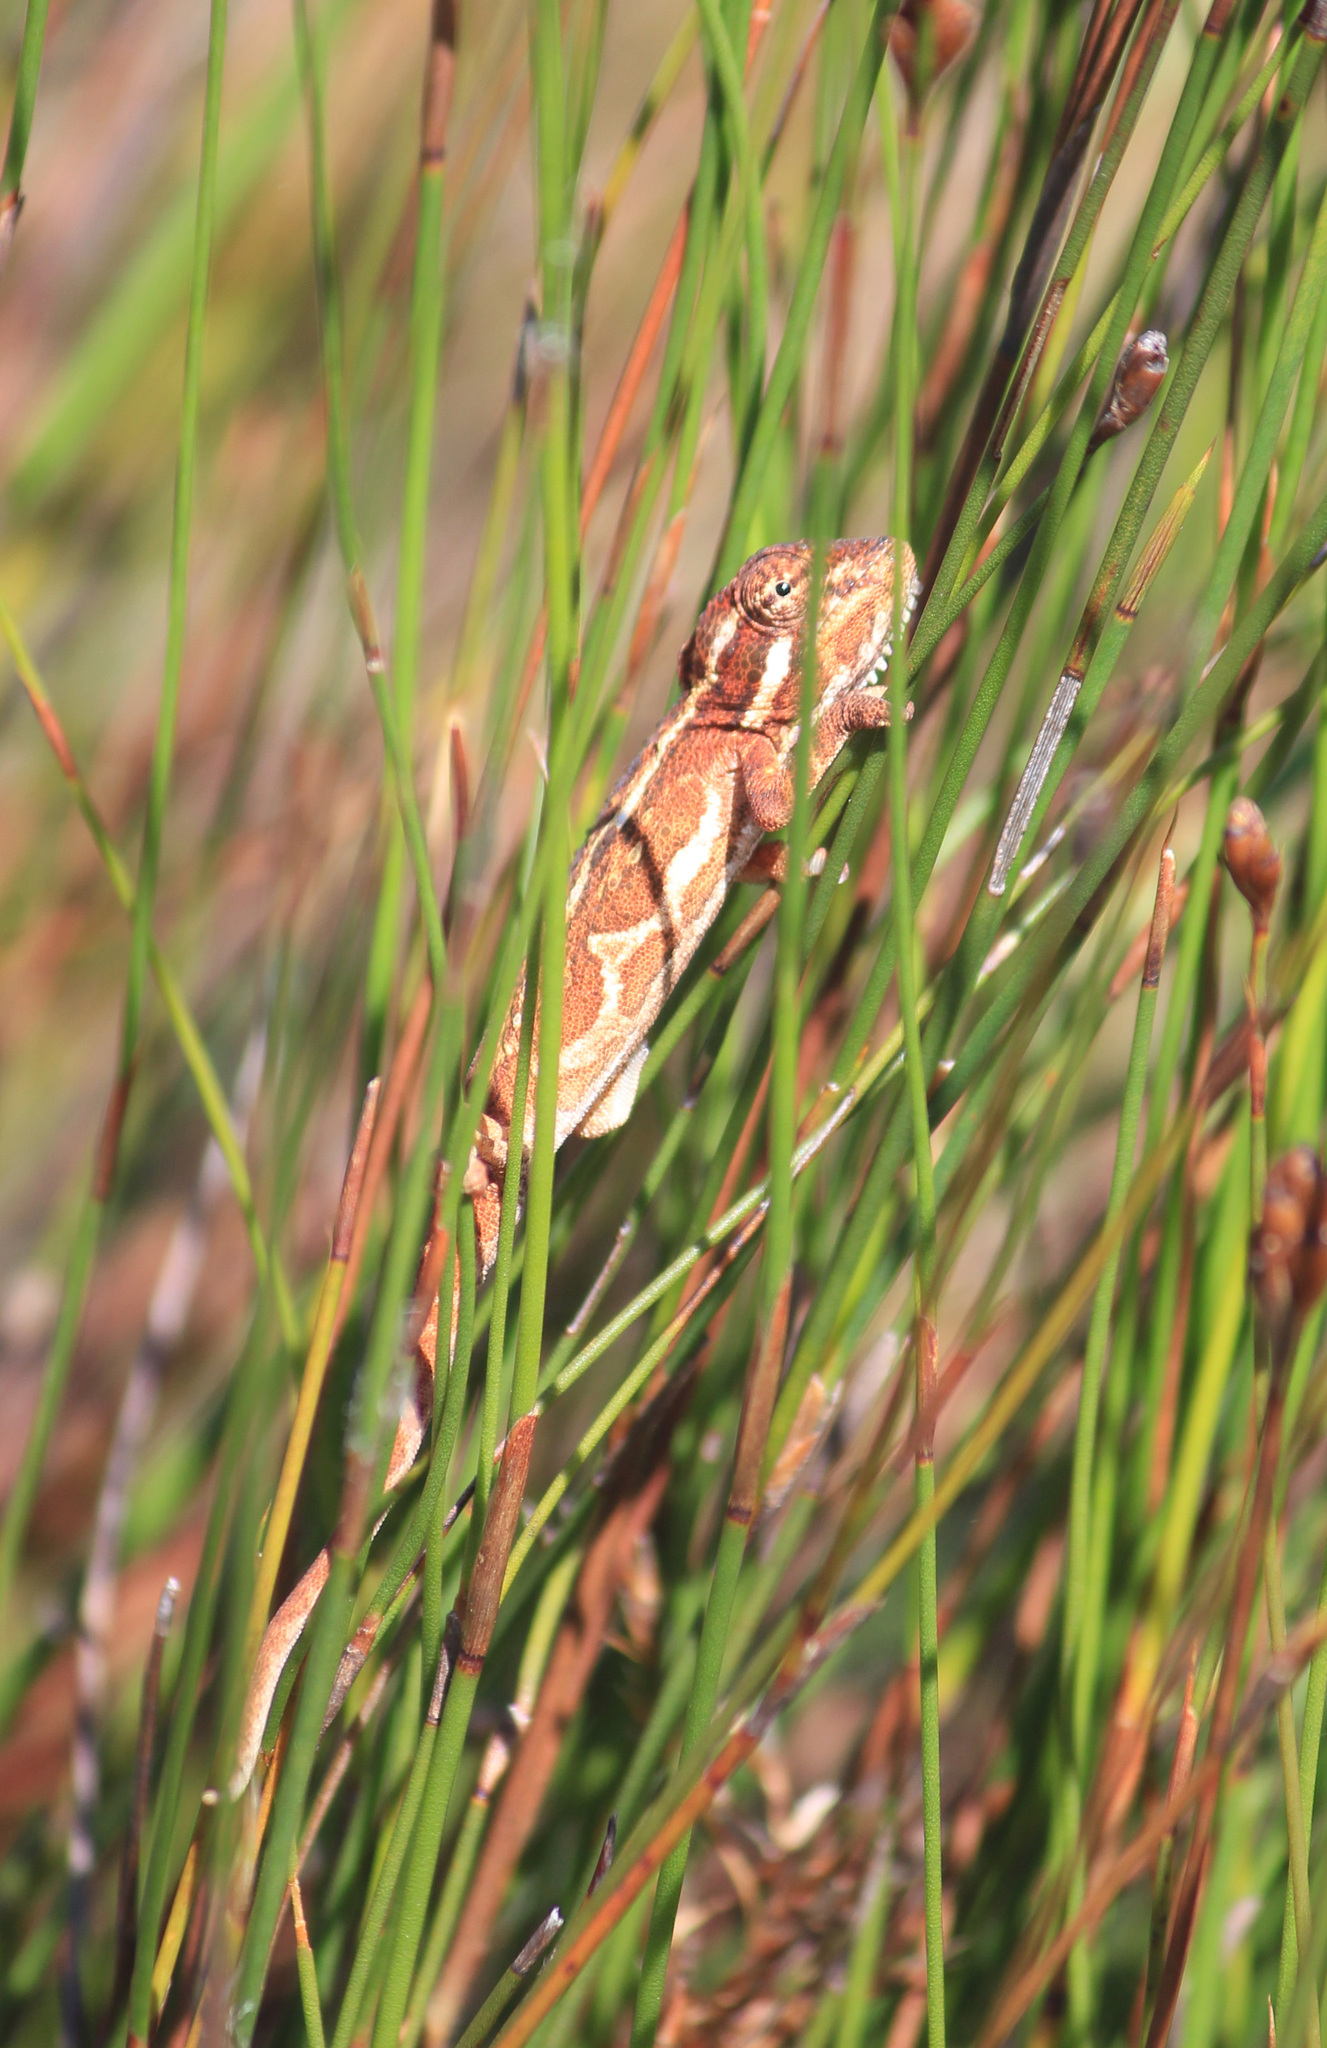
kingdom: Animalia
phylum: Chordata
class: Squamata
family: Chamaeleonidae
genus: Bradypodion
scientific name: Bradypodion pumilum
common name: Cape dwarf chameleon
